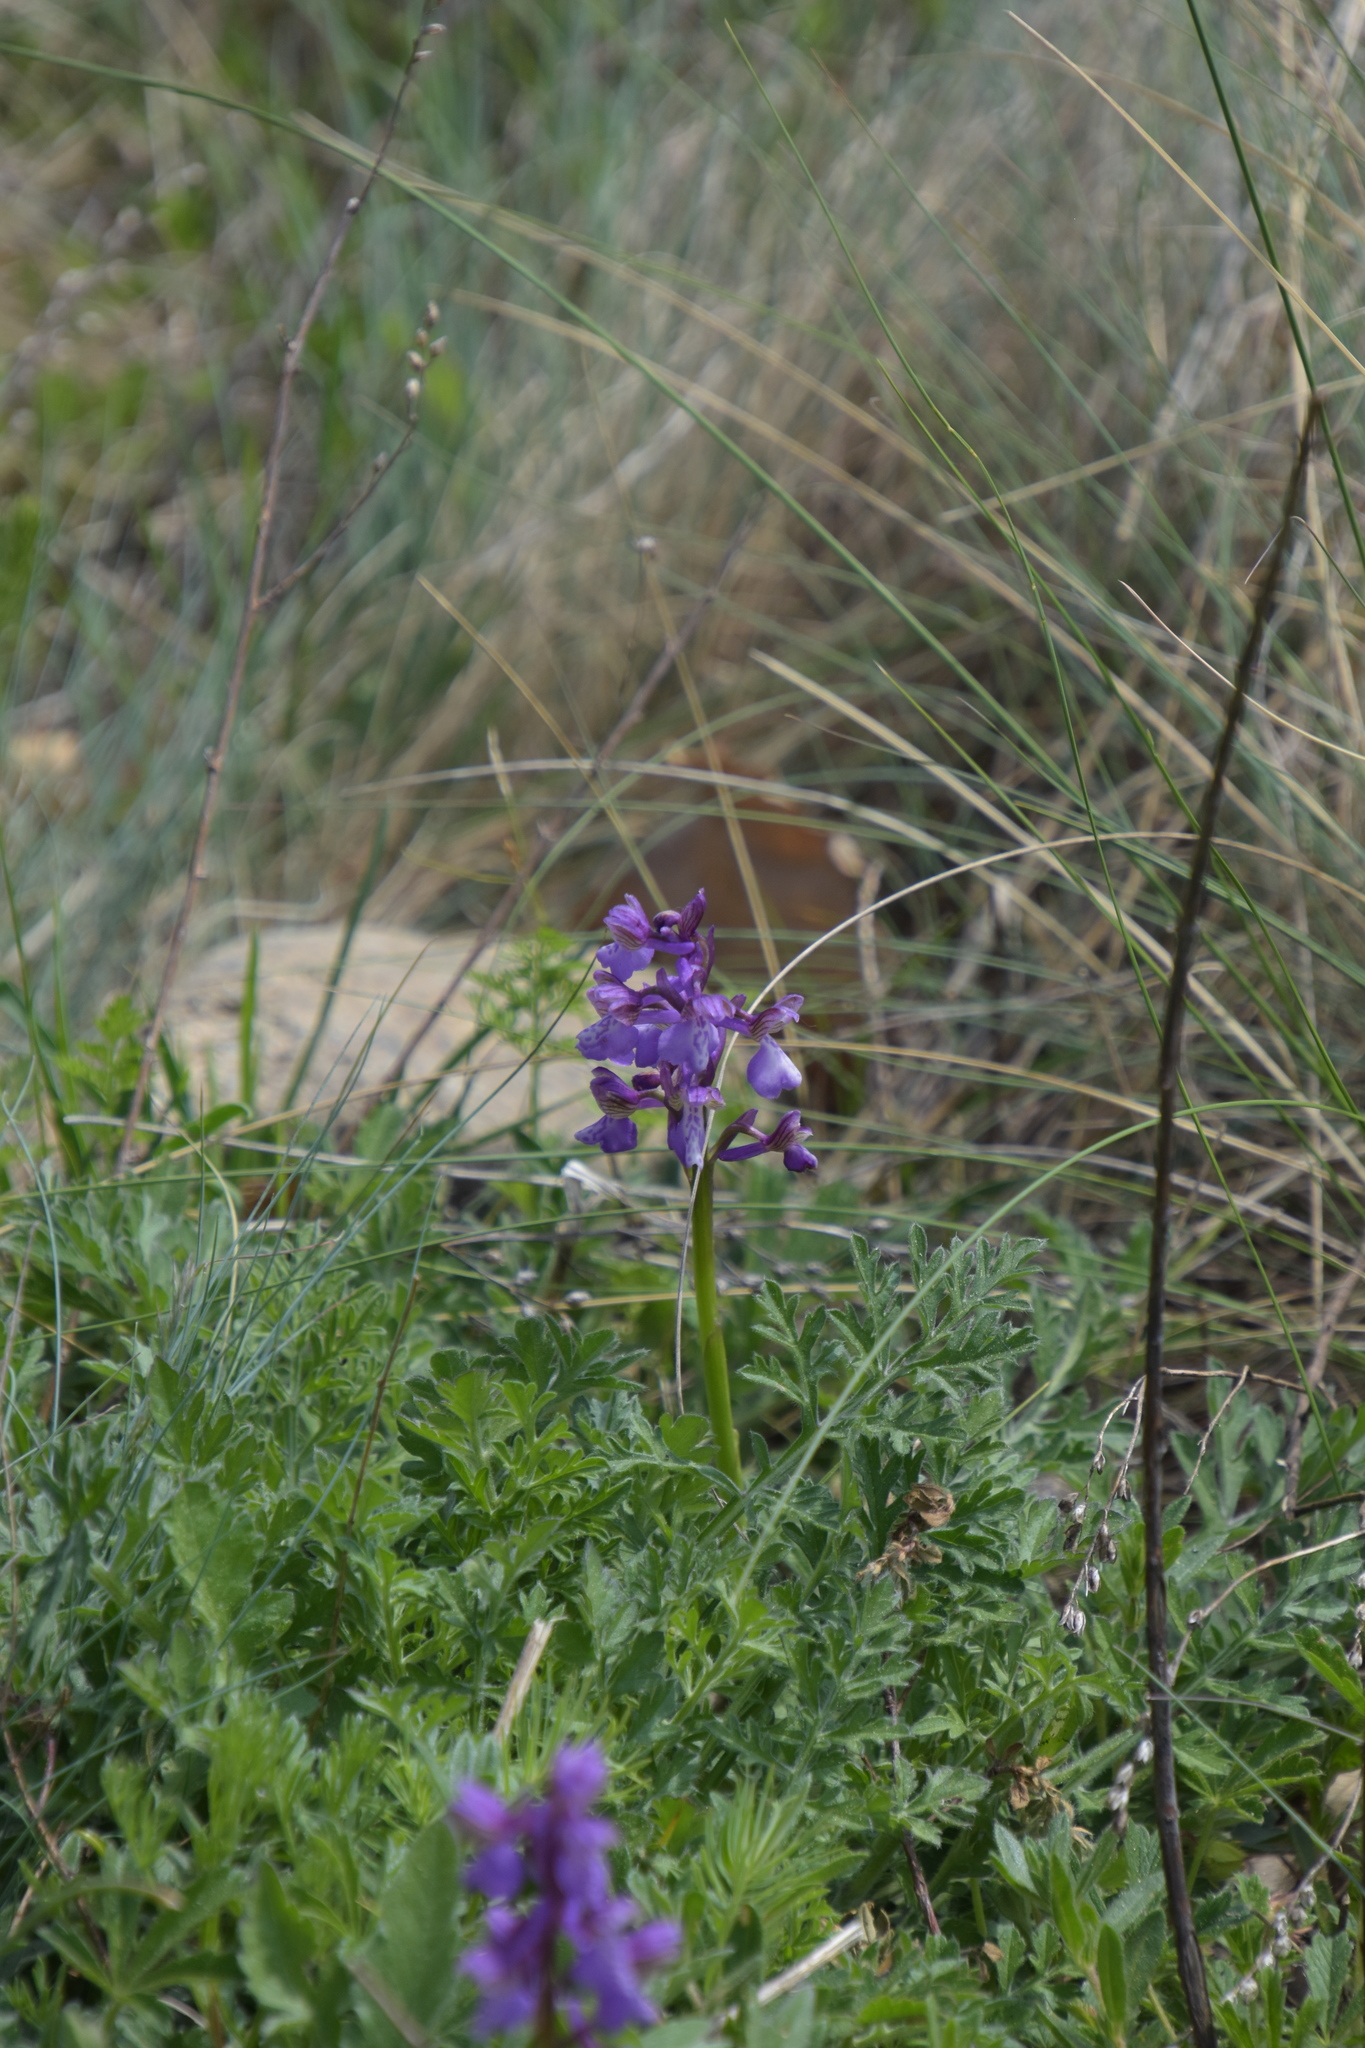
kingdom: Plantae
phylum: Tracheophyta
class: Liliopsida
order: Asparagales
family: Orchidaceae
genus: Anacamptis
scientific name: Anacamptis morio
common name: Green-winged orchid
